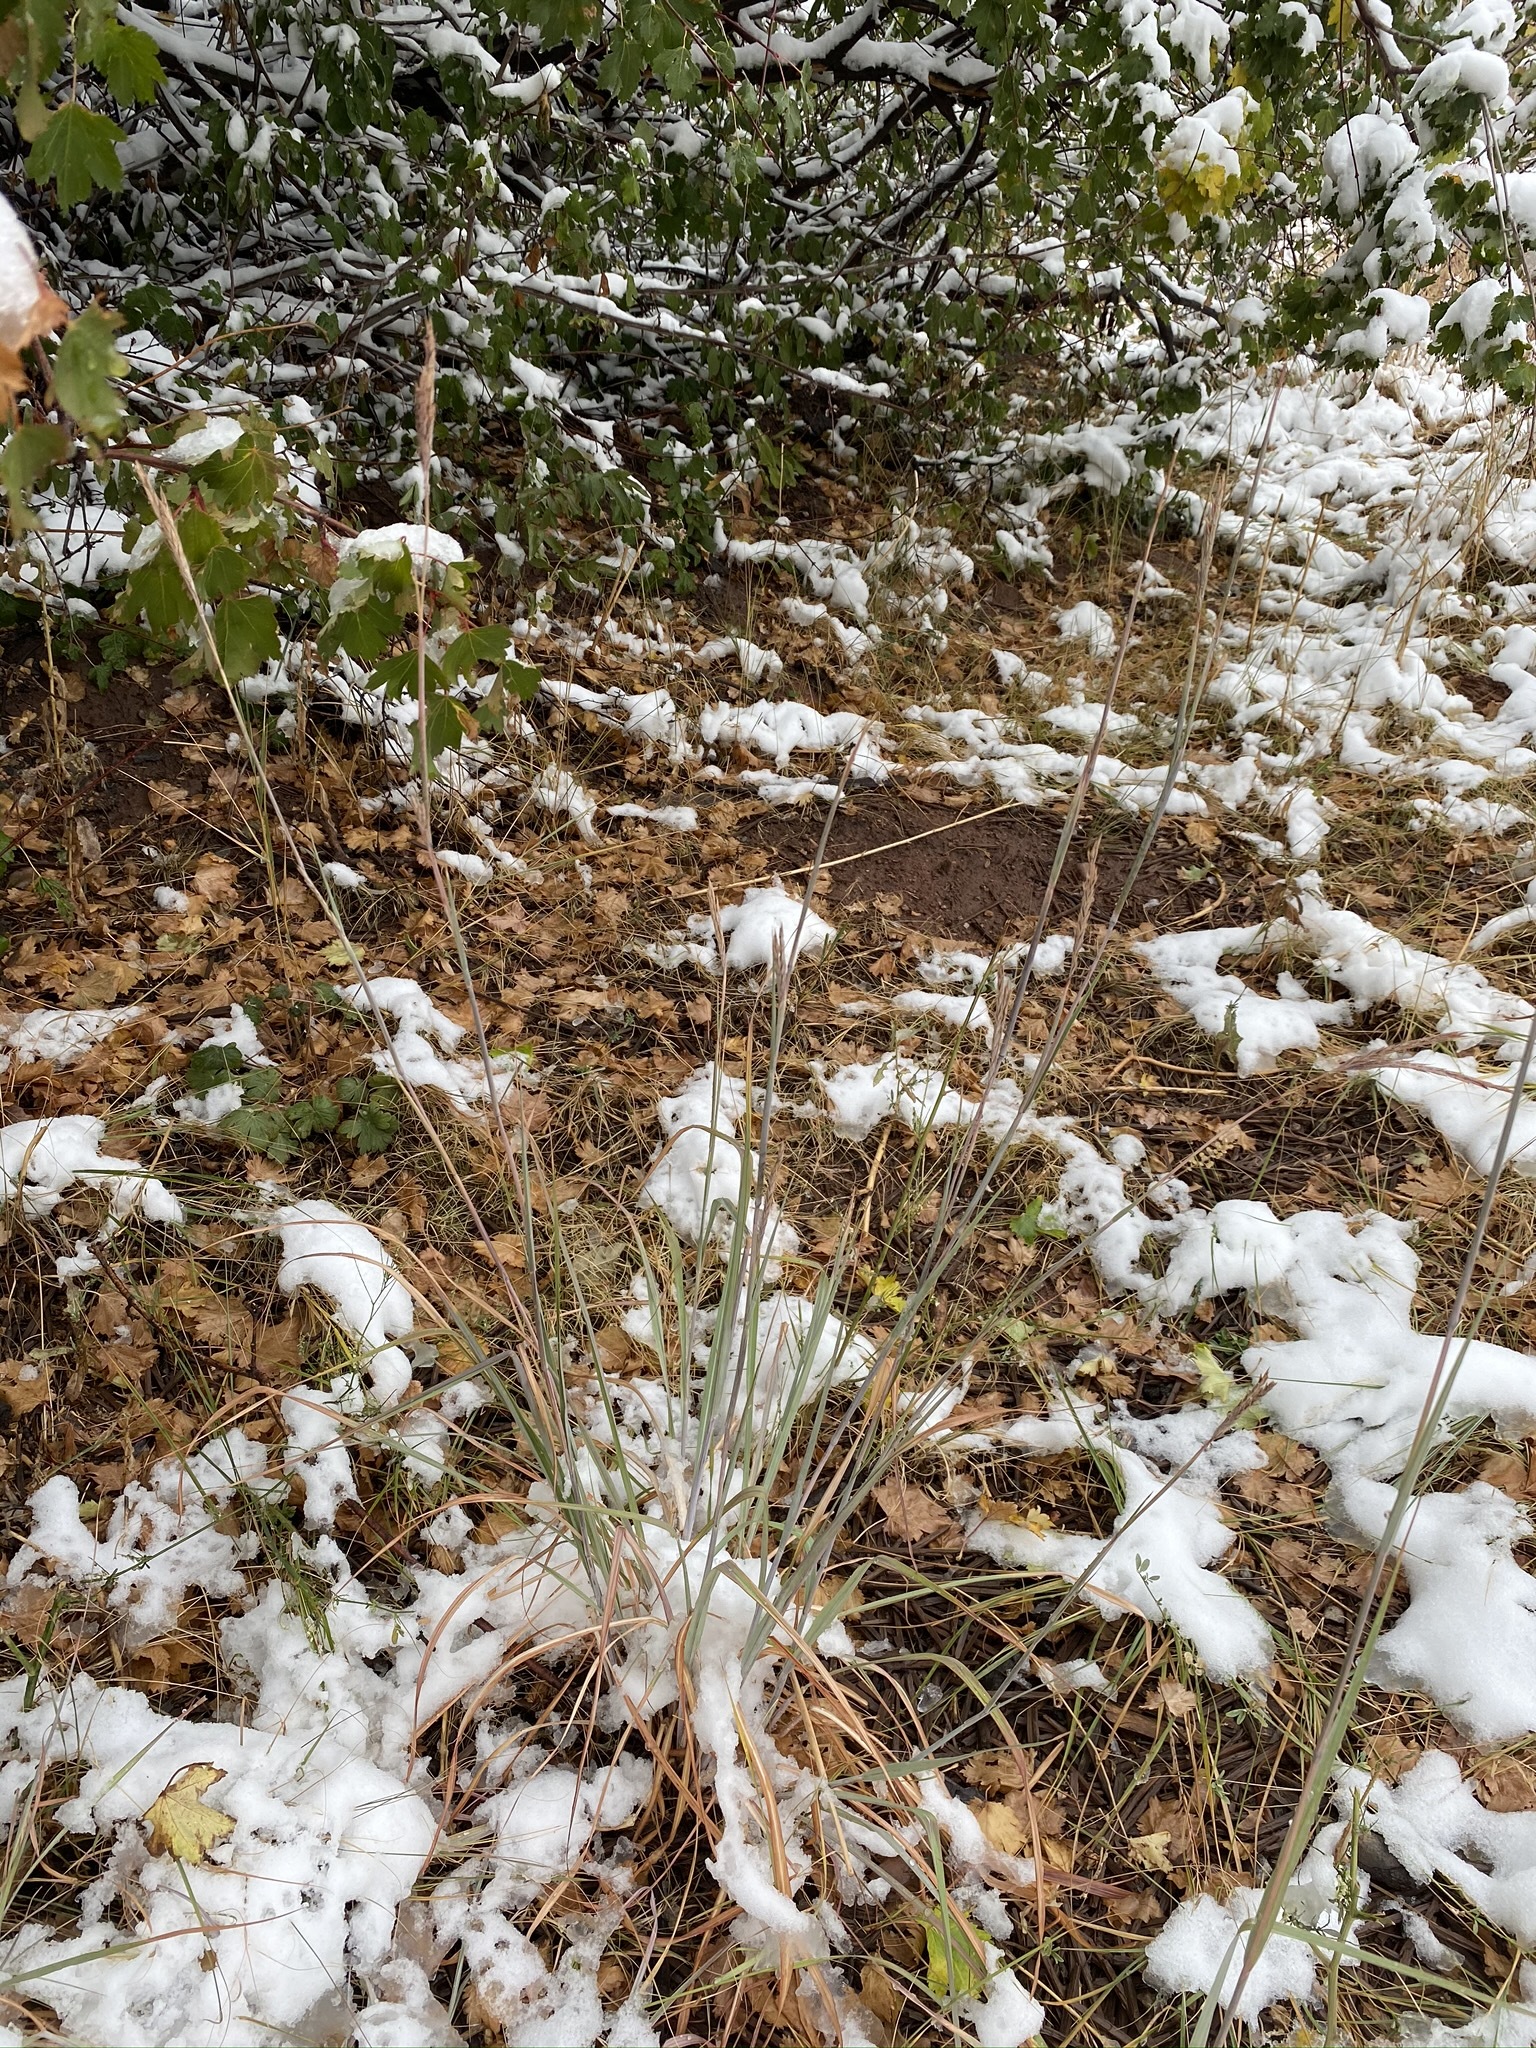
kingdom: Plantae
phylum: Tracheophyta
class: Liliopsida
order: Poales
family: Poaceae
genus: Andropogon
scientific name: Andropogon gerardi
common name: Big bluestem
